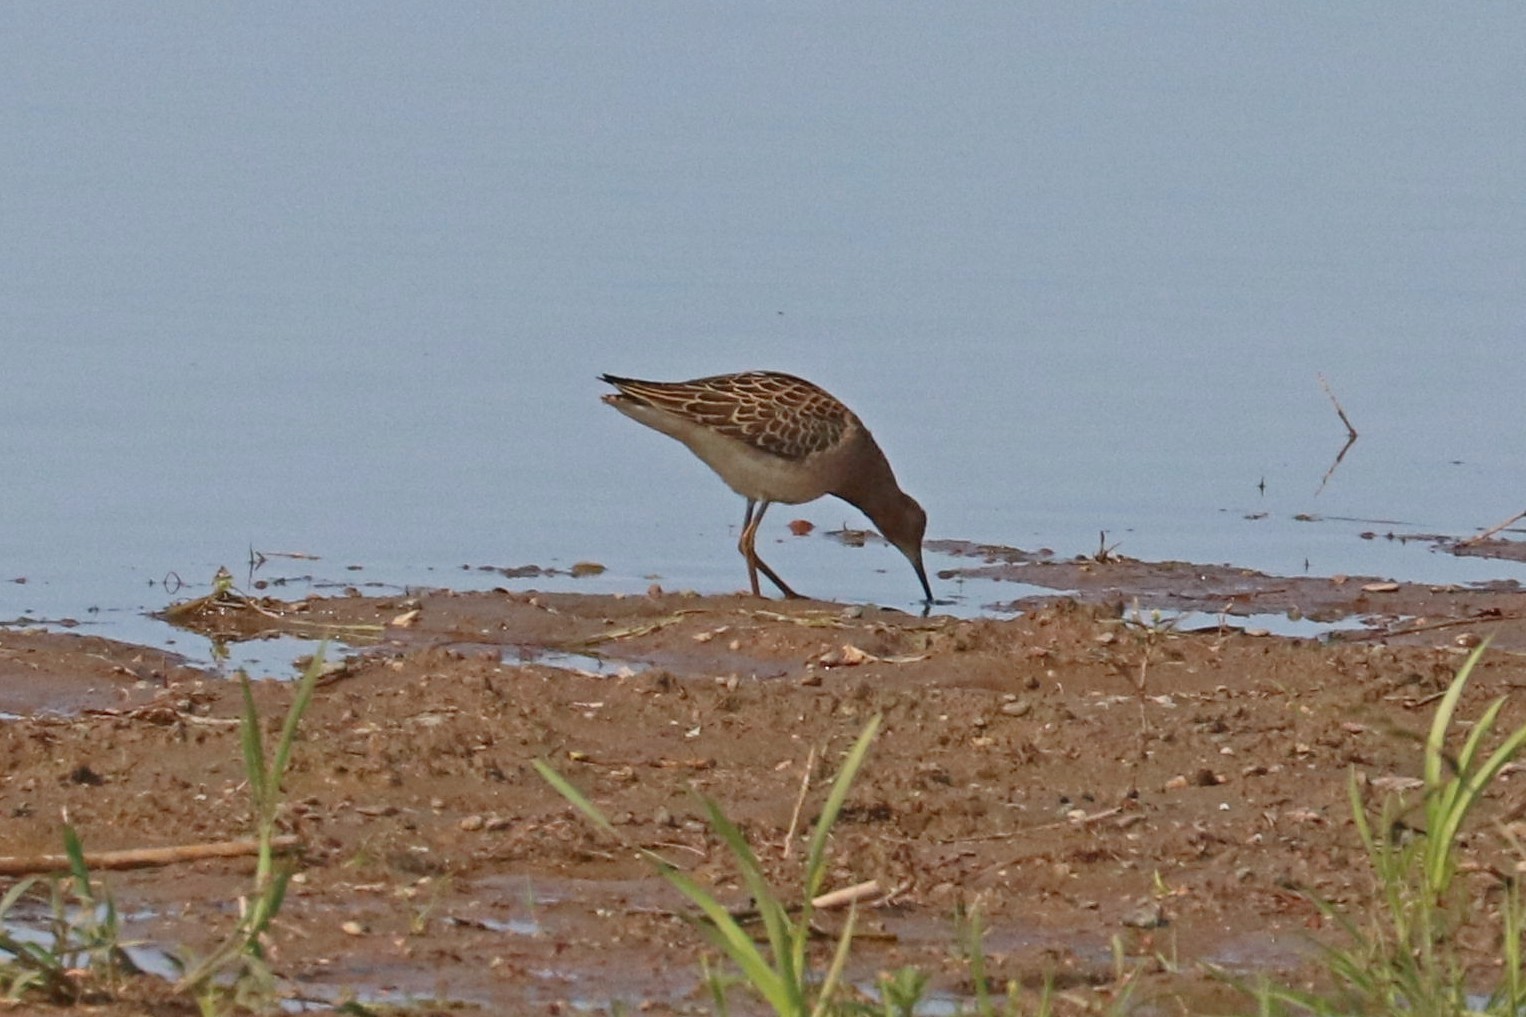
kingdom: Animalia
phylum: Chordata
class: Aves
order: Charadriiformes
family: Scolopacidae
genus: Calidris
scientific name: Calidris pugnax
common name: Ruff
